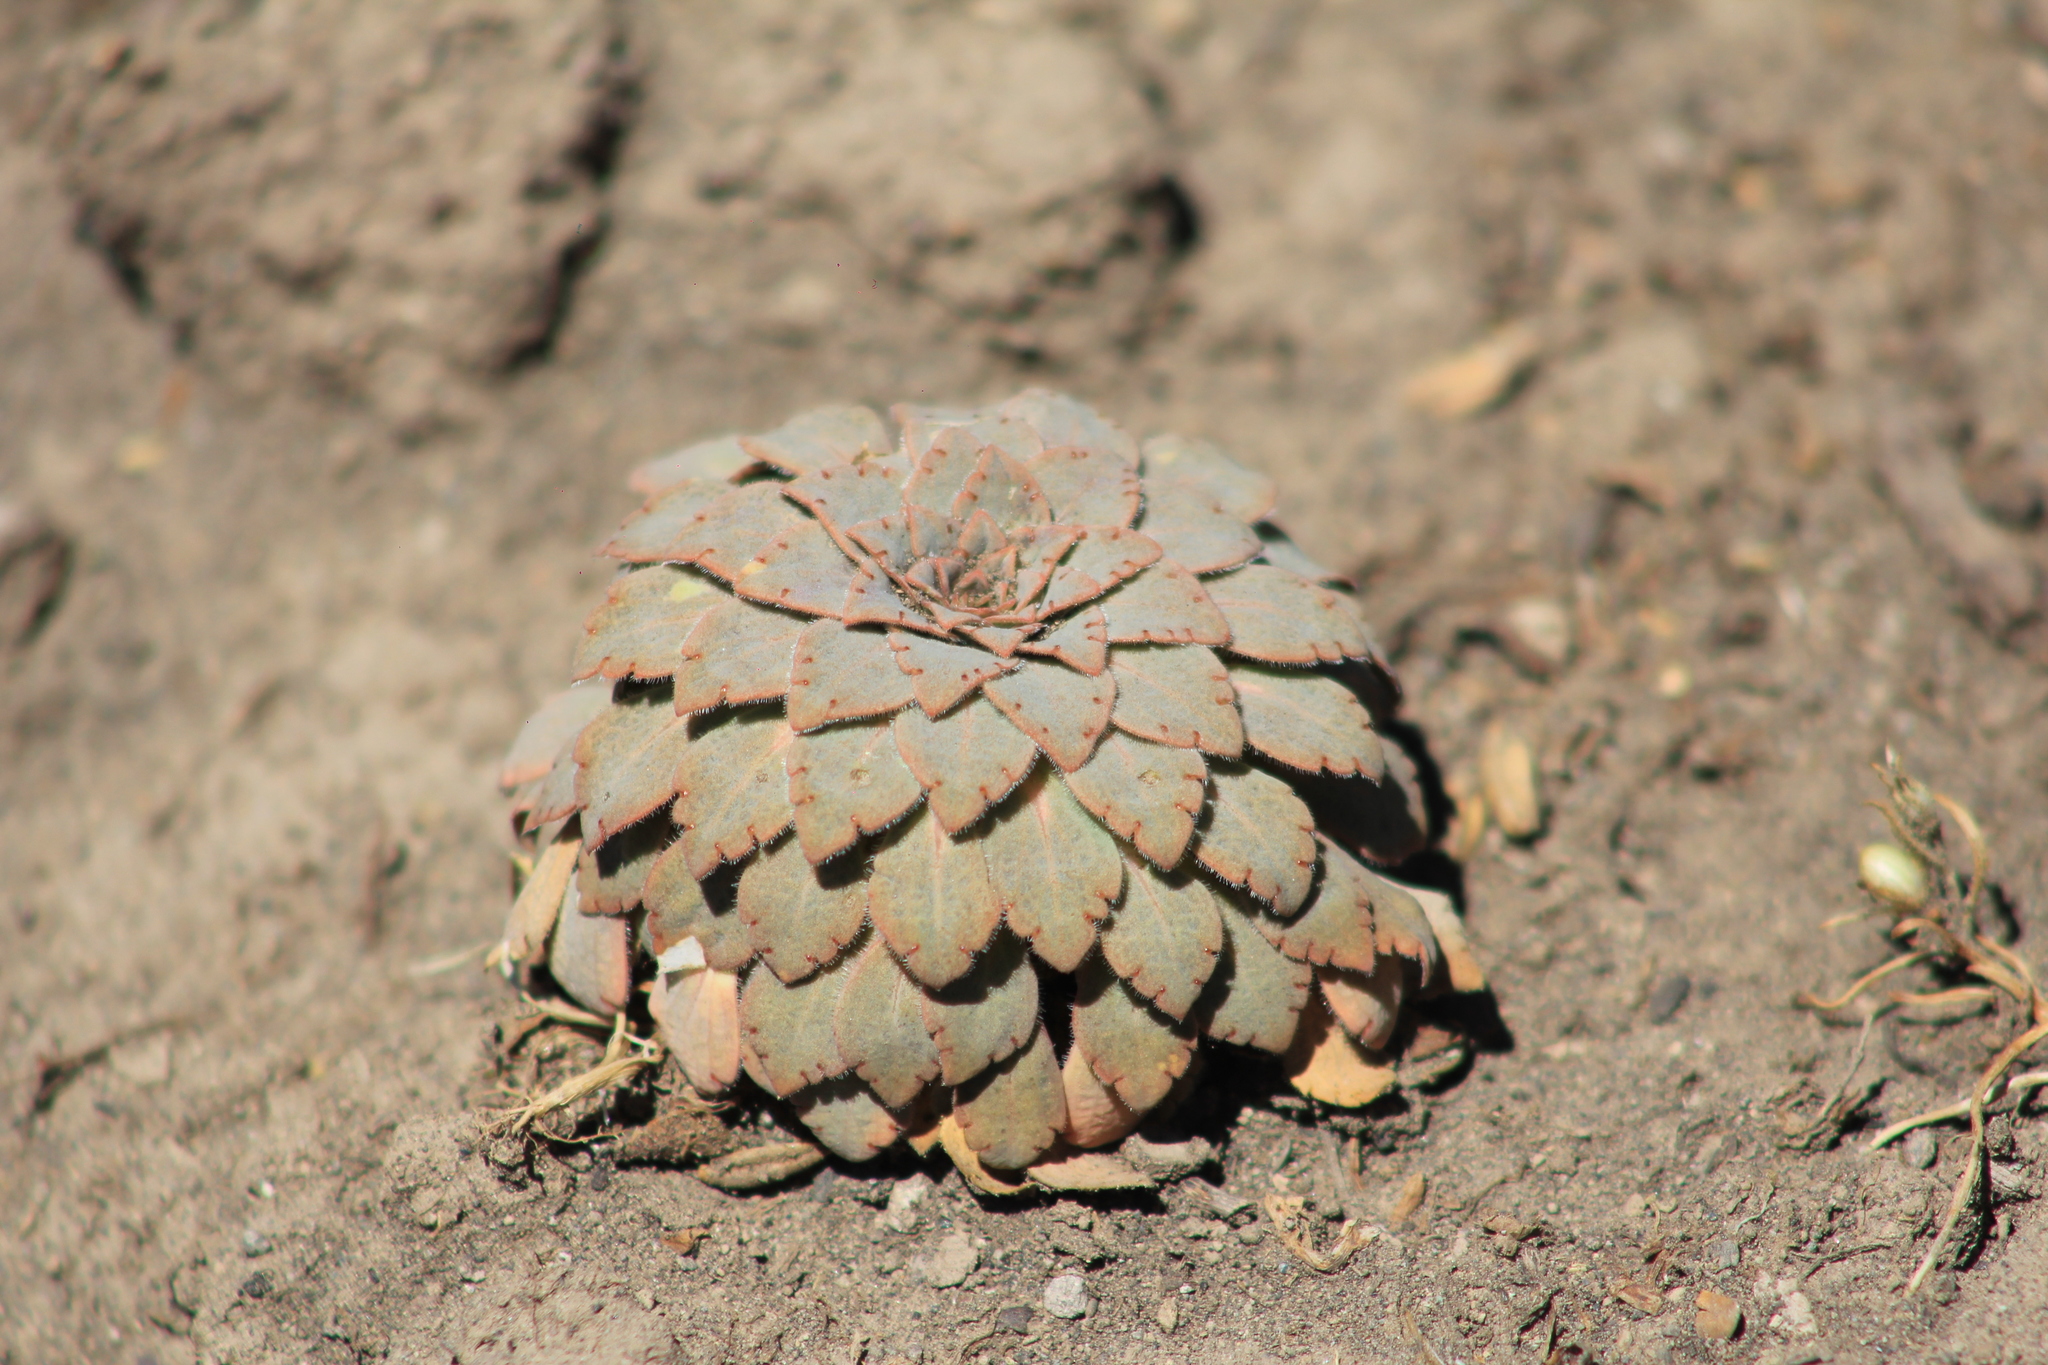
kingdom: Plantae
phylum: Tracheophyta
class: Magnoliopsida
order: Malpighiales
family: Violaceae
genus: Viola
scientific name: Viola farkasiana
